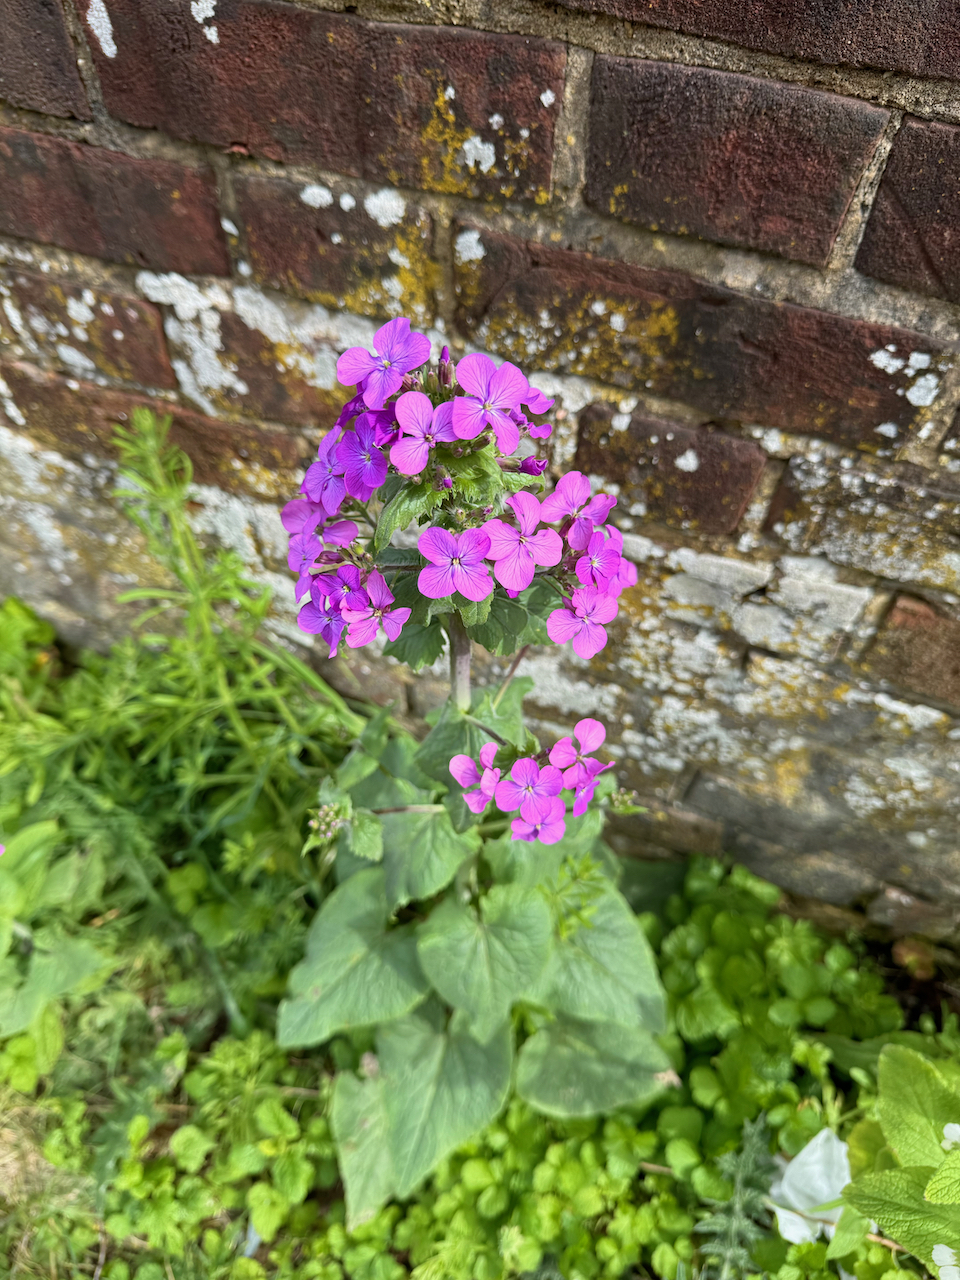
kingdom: Plantae
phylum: Tracheophyta
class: Magnoliopsida
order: Brassicales
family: Brassicaceae
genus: Lunaria
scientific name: Lunaria annua
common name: Honesty
